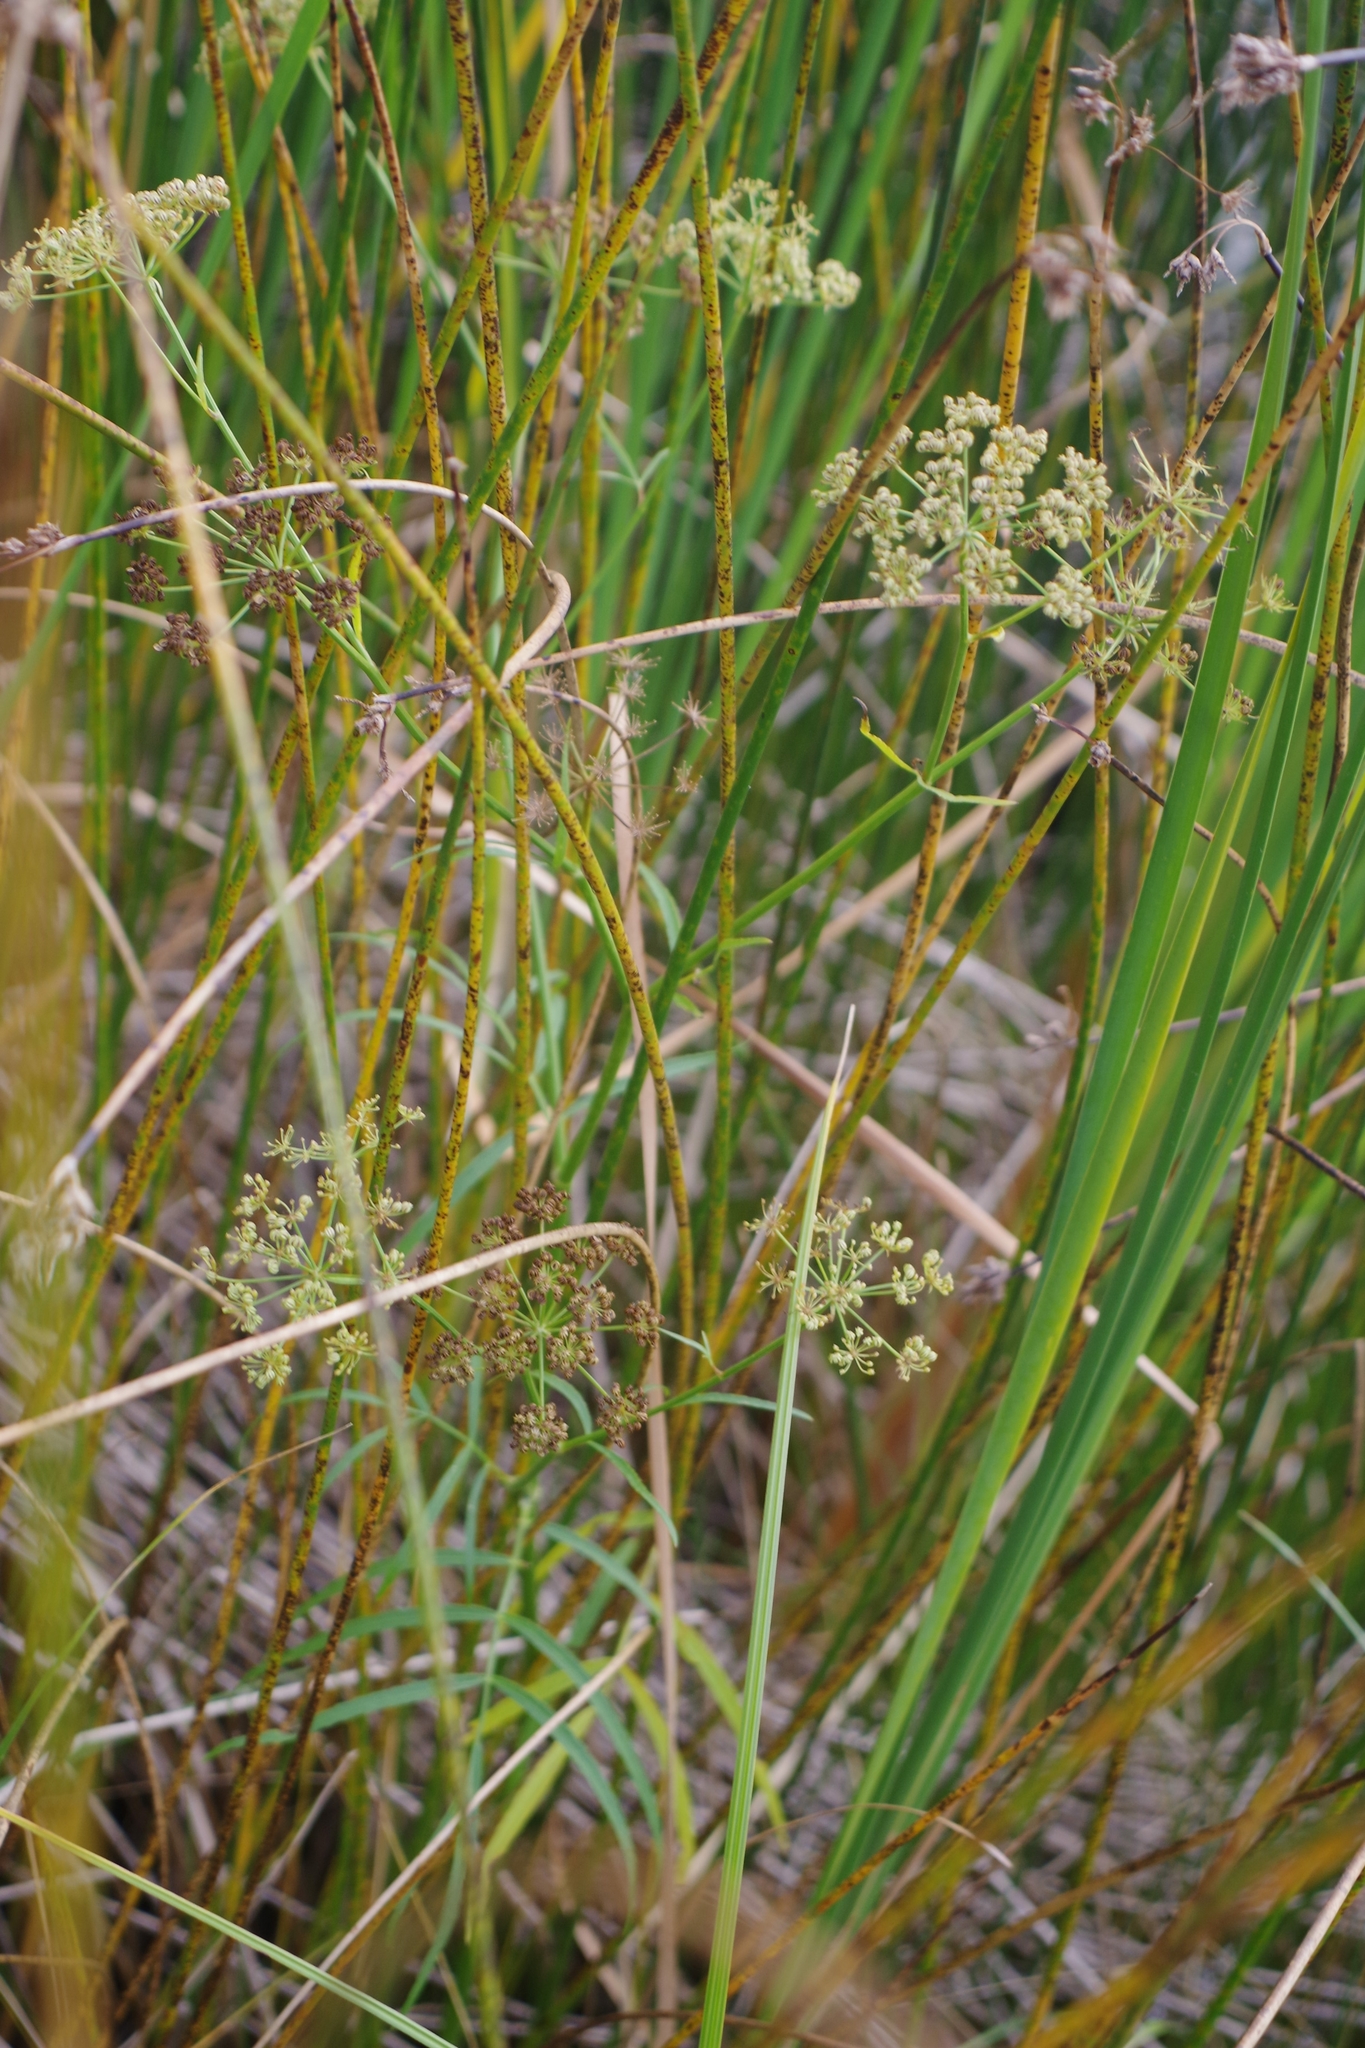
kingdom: Plantae
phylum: Tracheophyta
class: Magnoliopsida
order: Apiales
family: Apiaceae
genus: Sium
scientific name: Sium suave
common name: Hemlock water-parsnip
